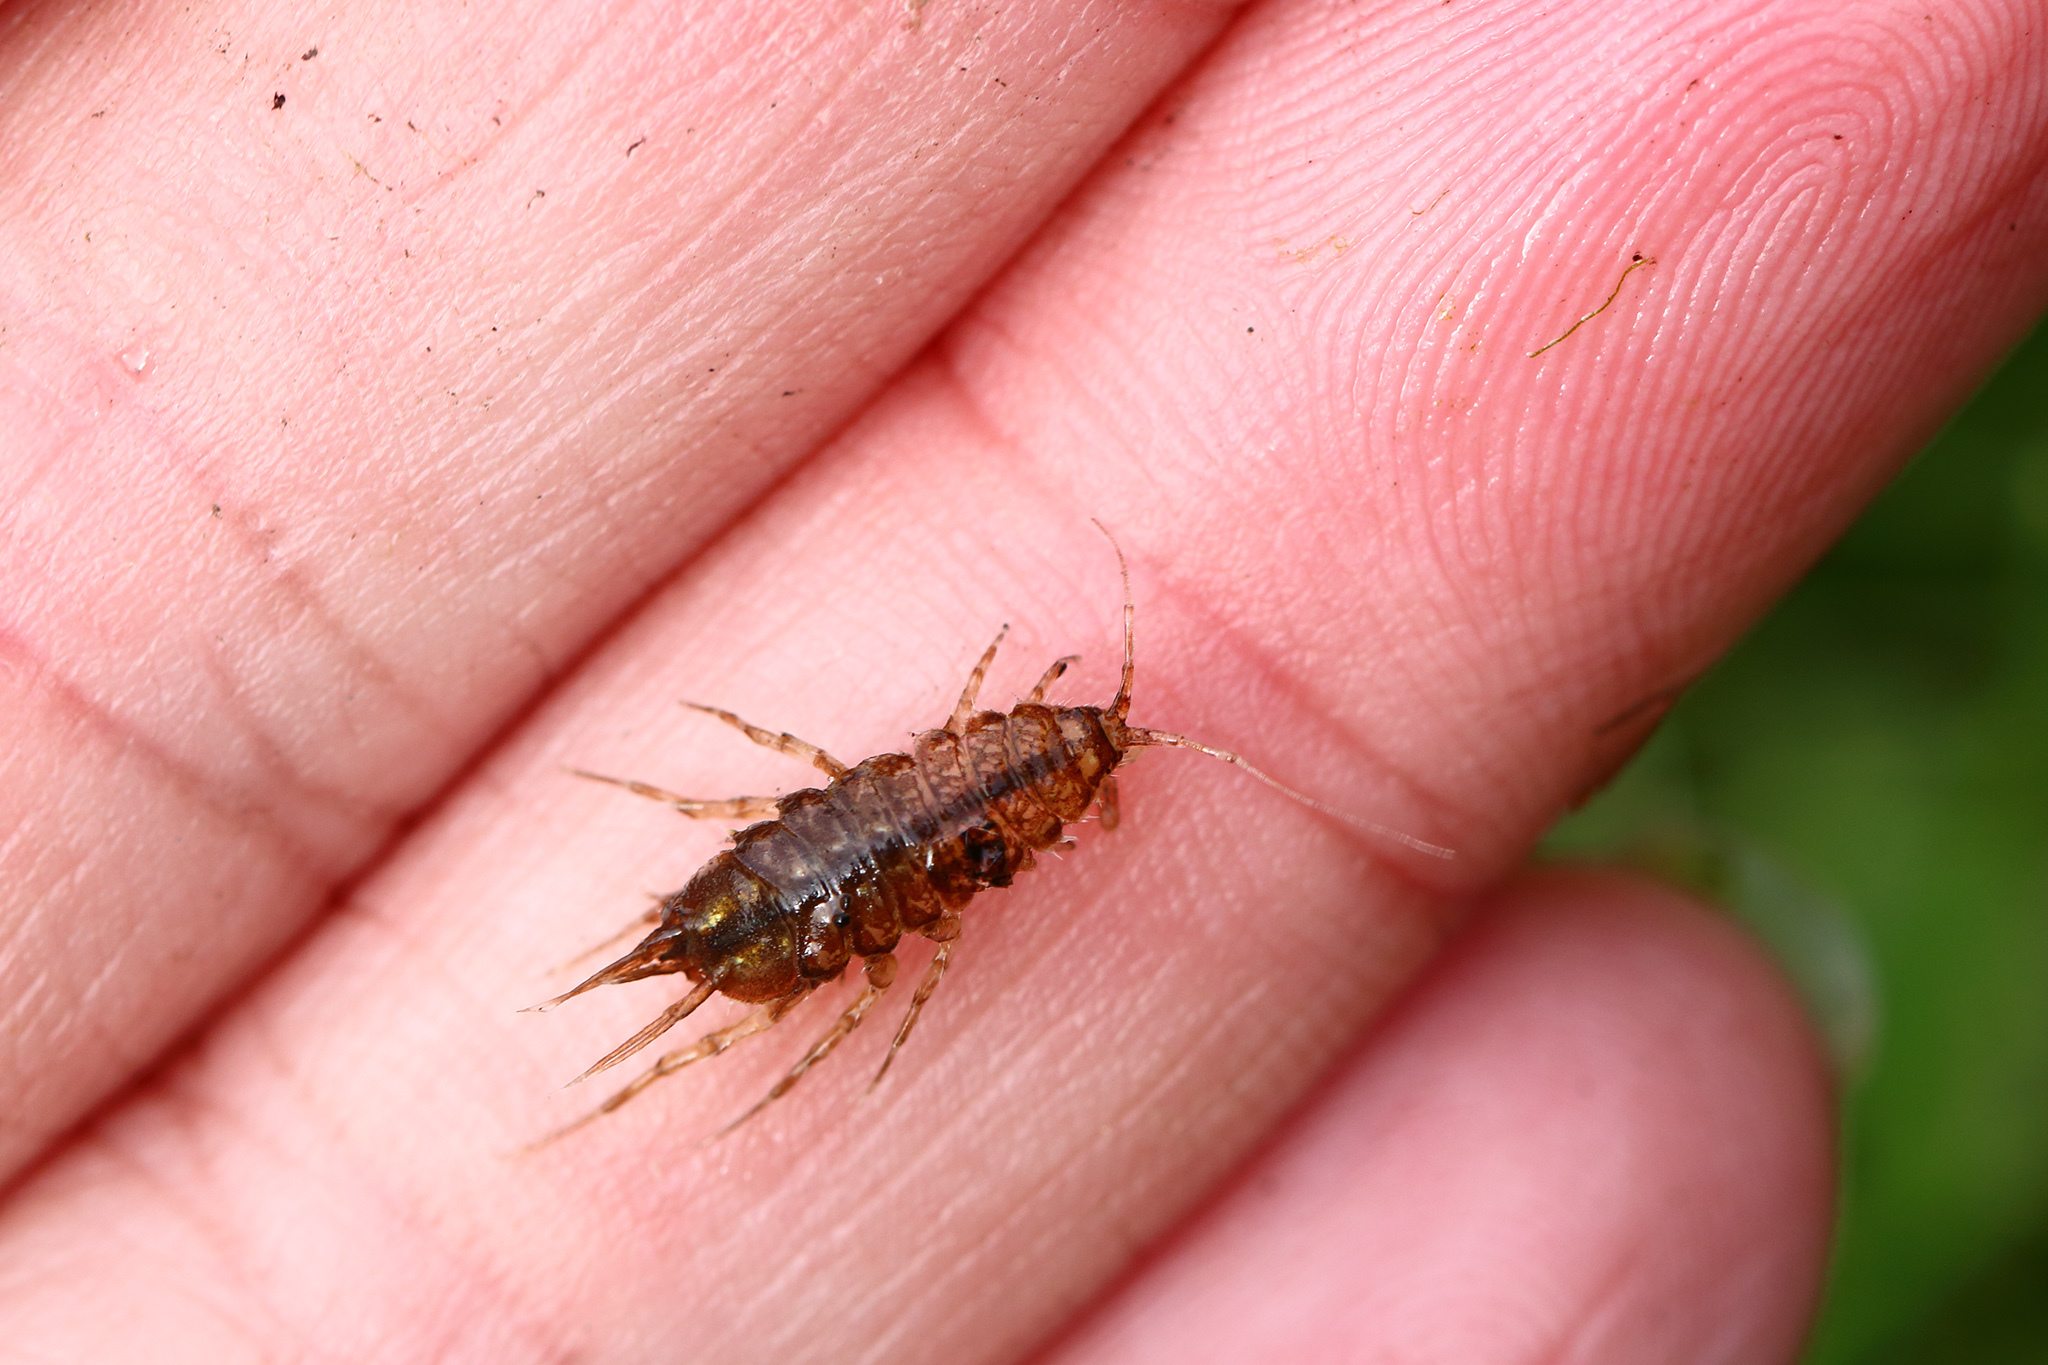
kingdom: Animalia
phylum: Arthropoda
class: Malacostraca
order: Isopoda
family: Asellidae
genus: Asellus
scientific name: Asellus aquaticus
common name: Water hog lice/slaters
